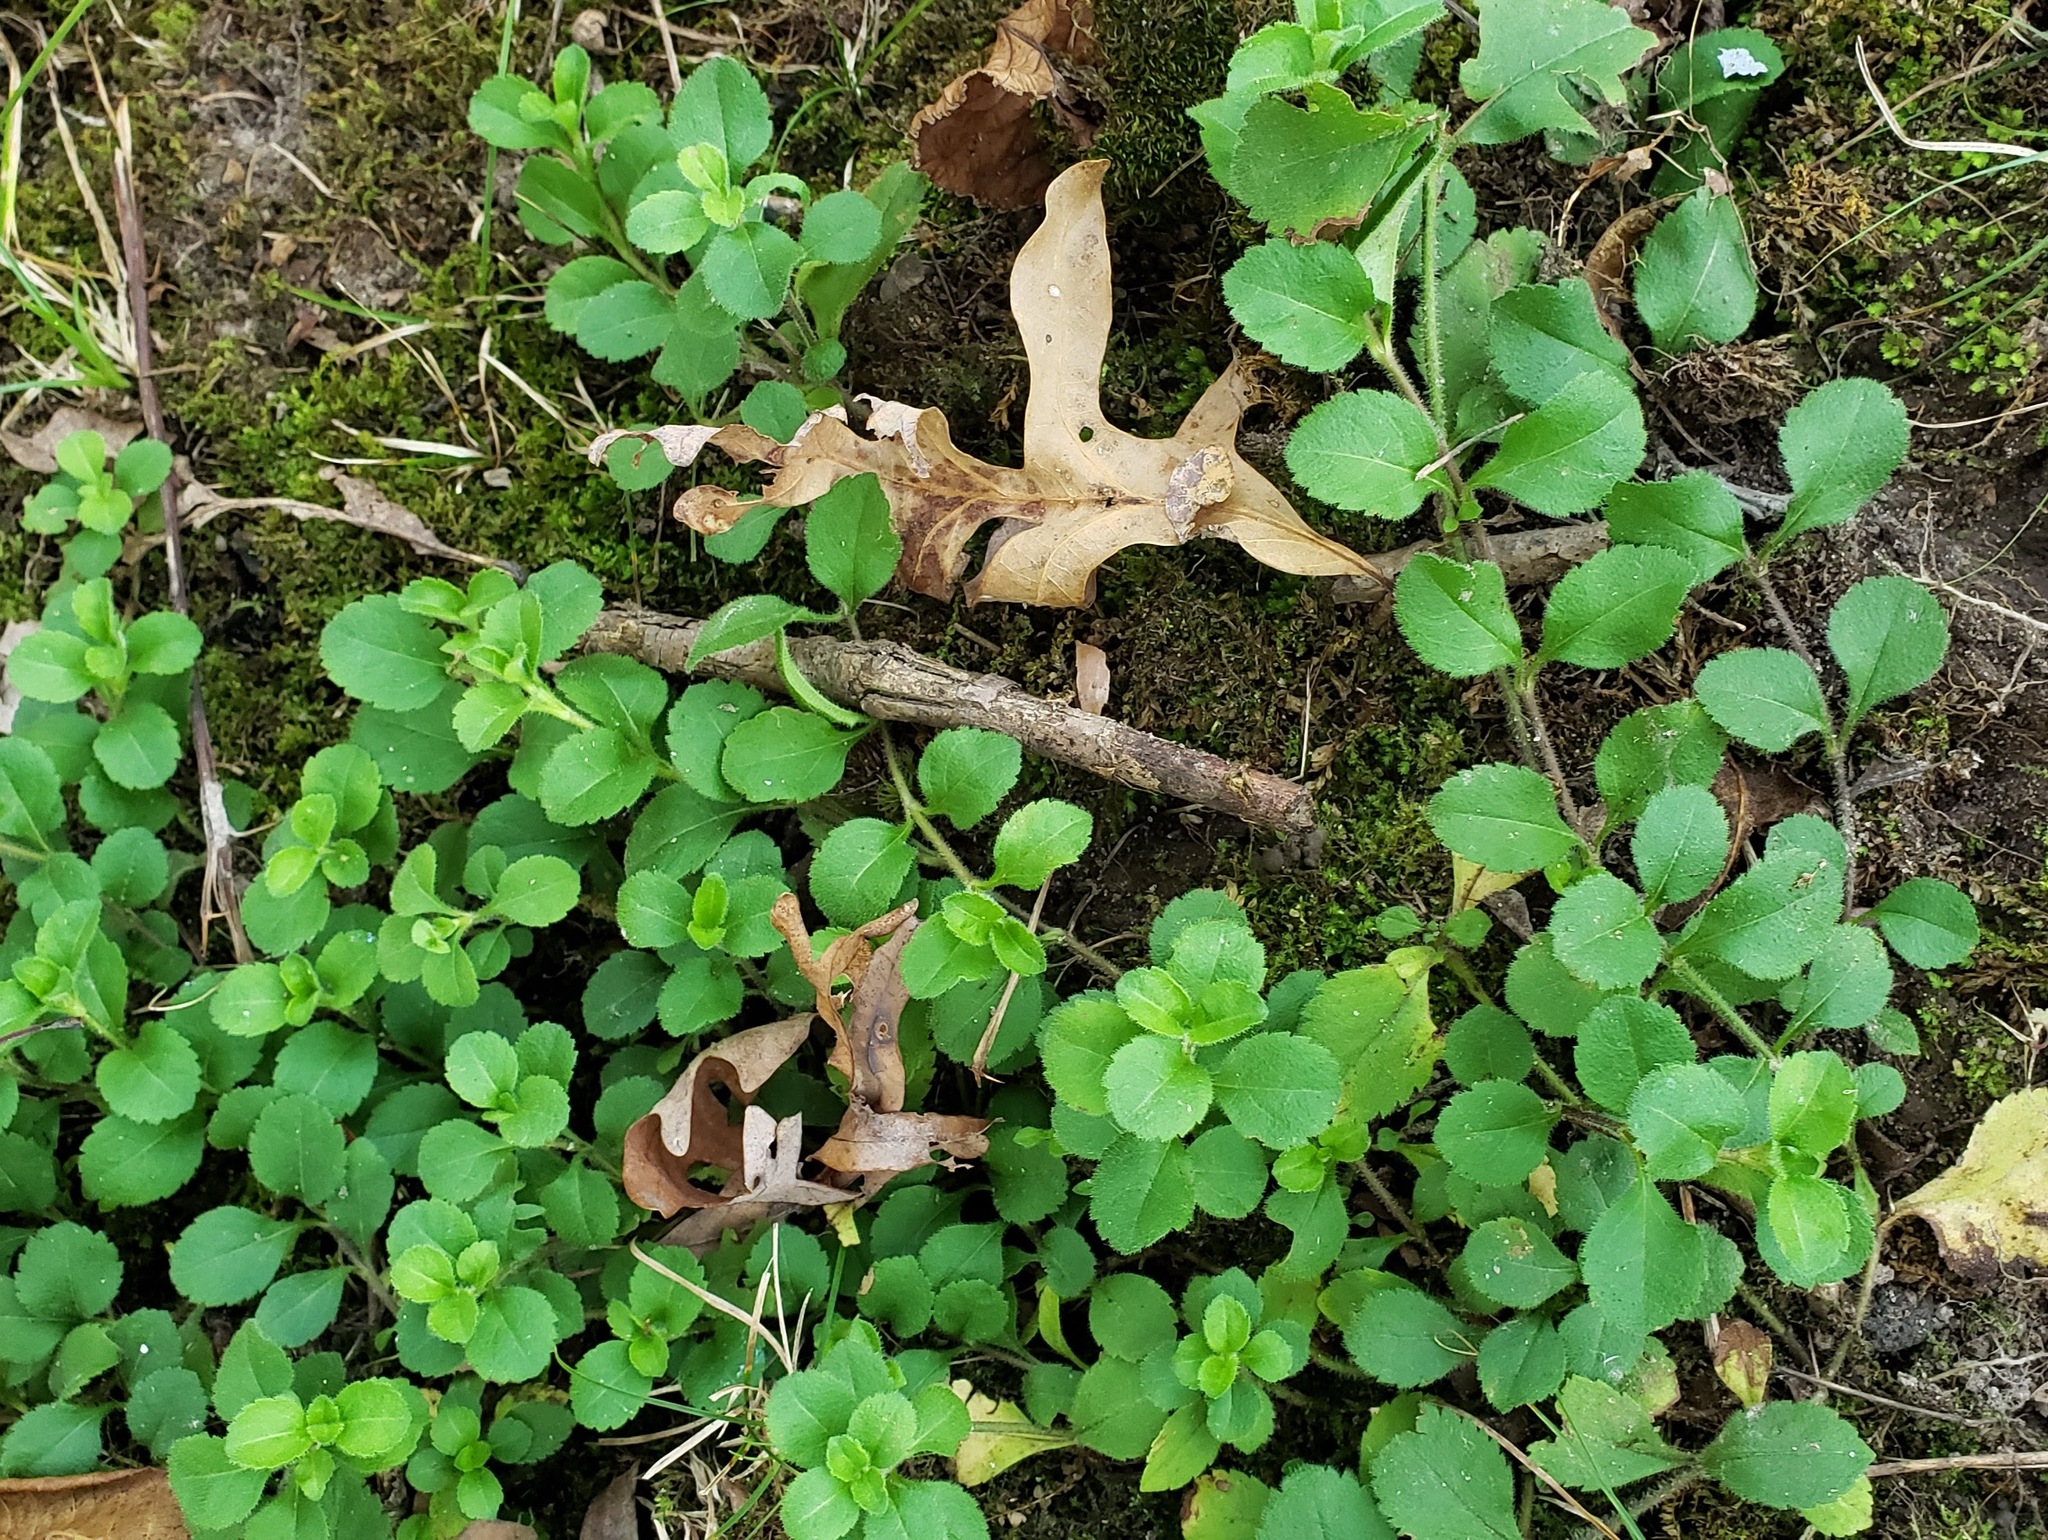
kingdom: Plantae
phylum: Tracheophyta
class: Magnoliopsida
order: Lamiales
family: Plantaginaceae
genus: Veronica
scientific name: Veronica officinalis
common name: Common speedwell
